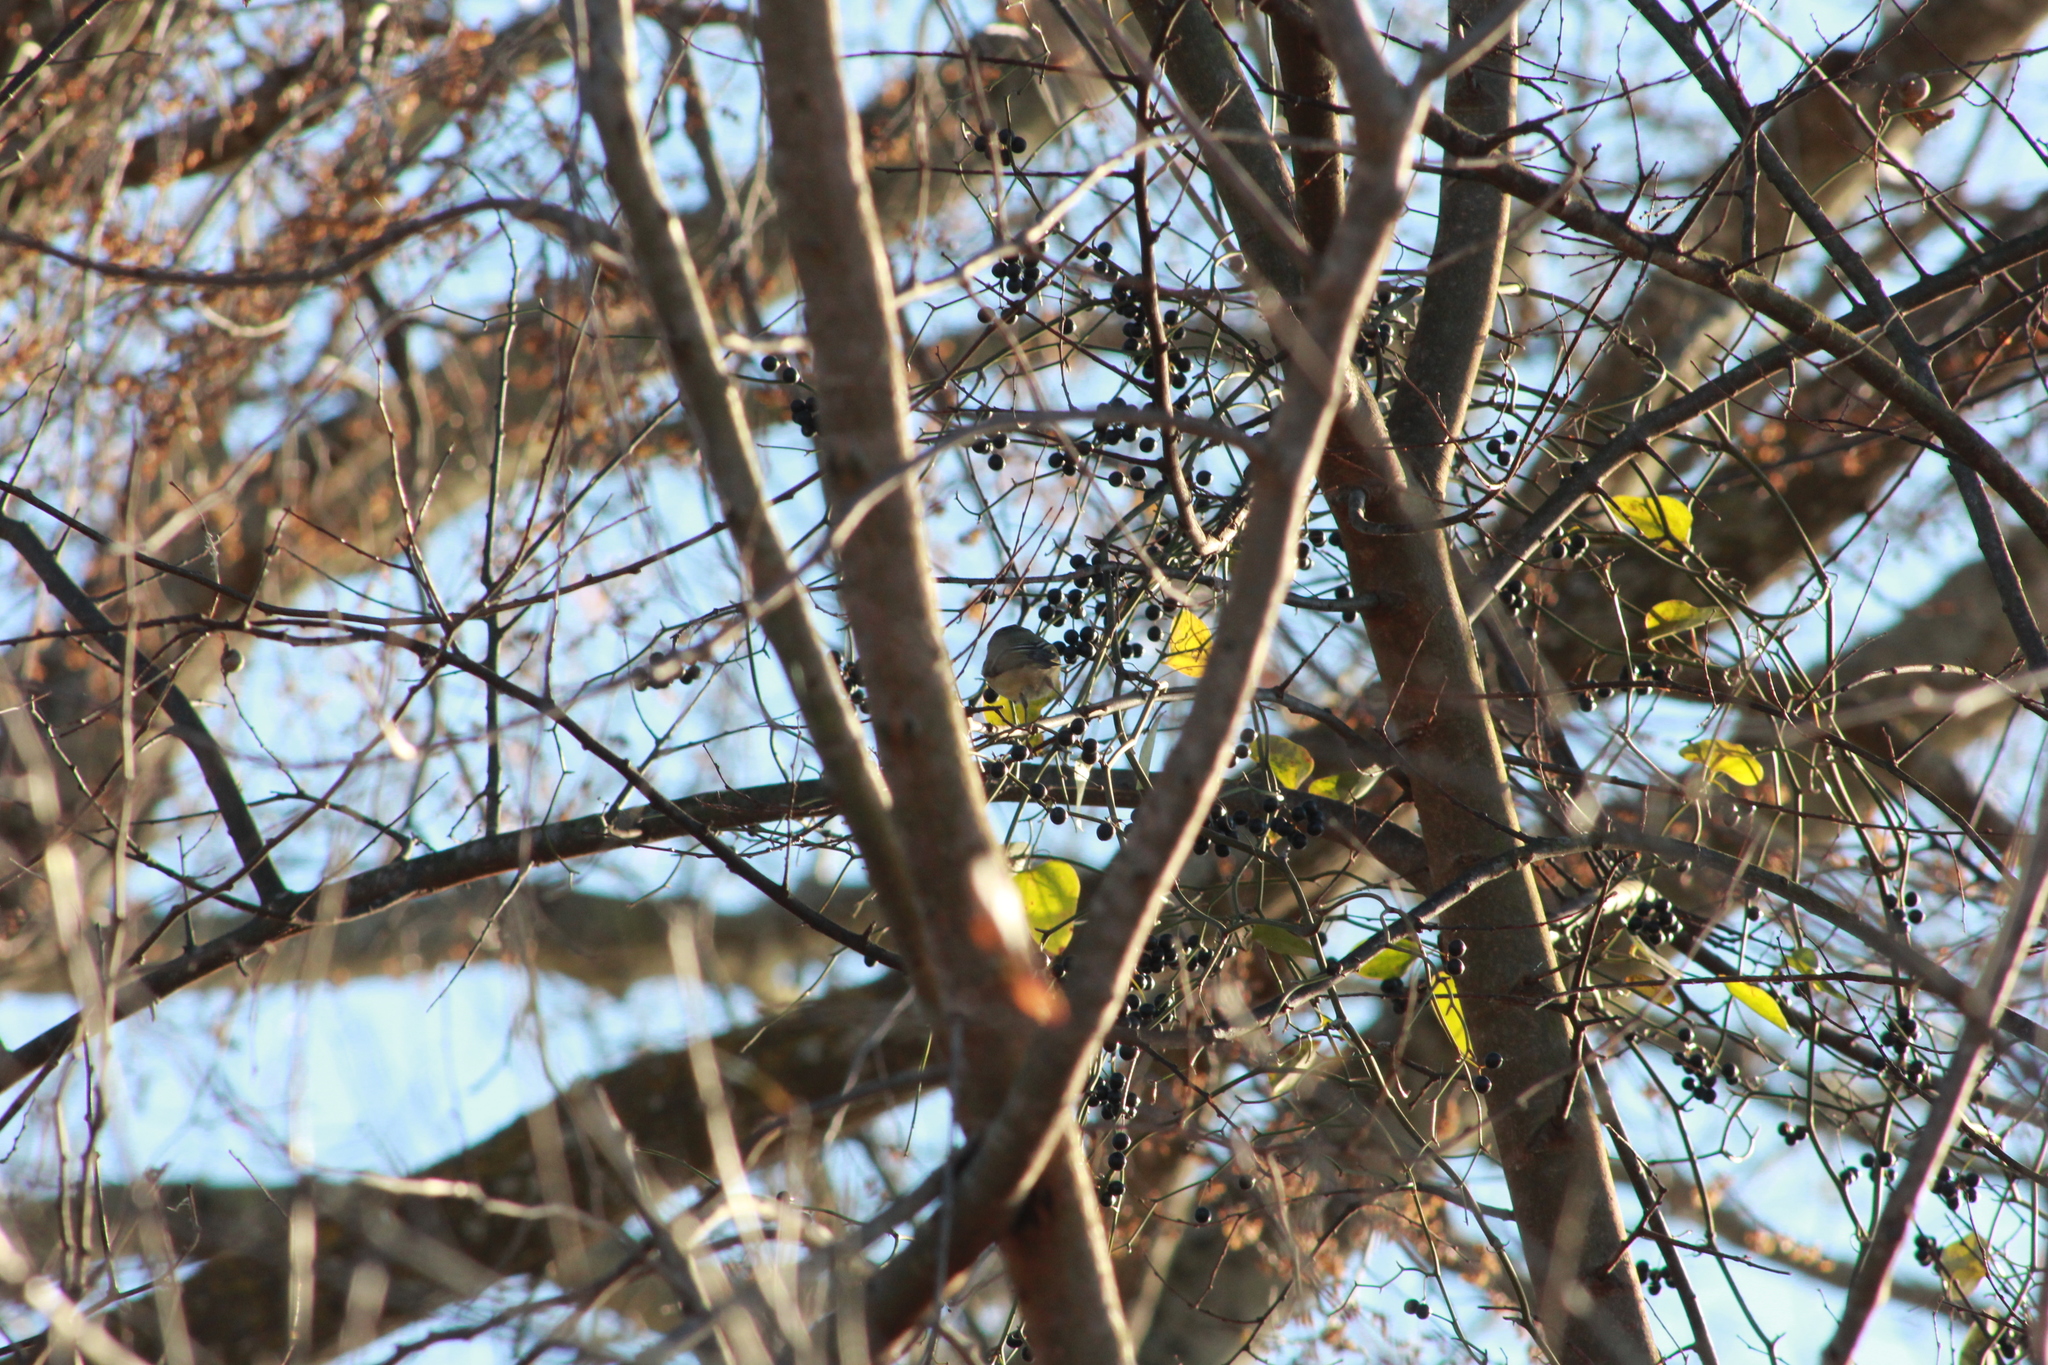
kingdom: Animalia
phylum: Chordata
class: Aves
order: Passeriformes
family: Regulidae
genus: Regulus
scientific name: Regulus calendula
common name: Ruby-crowned kinglet
